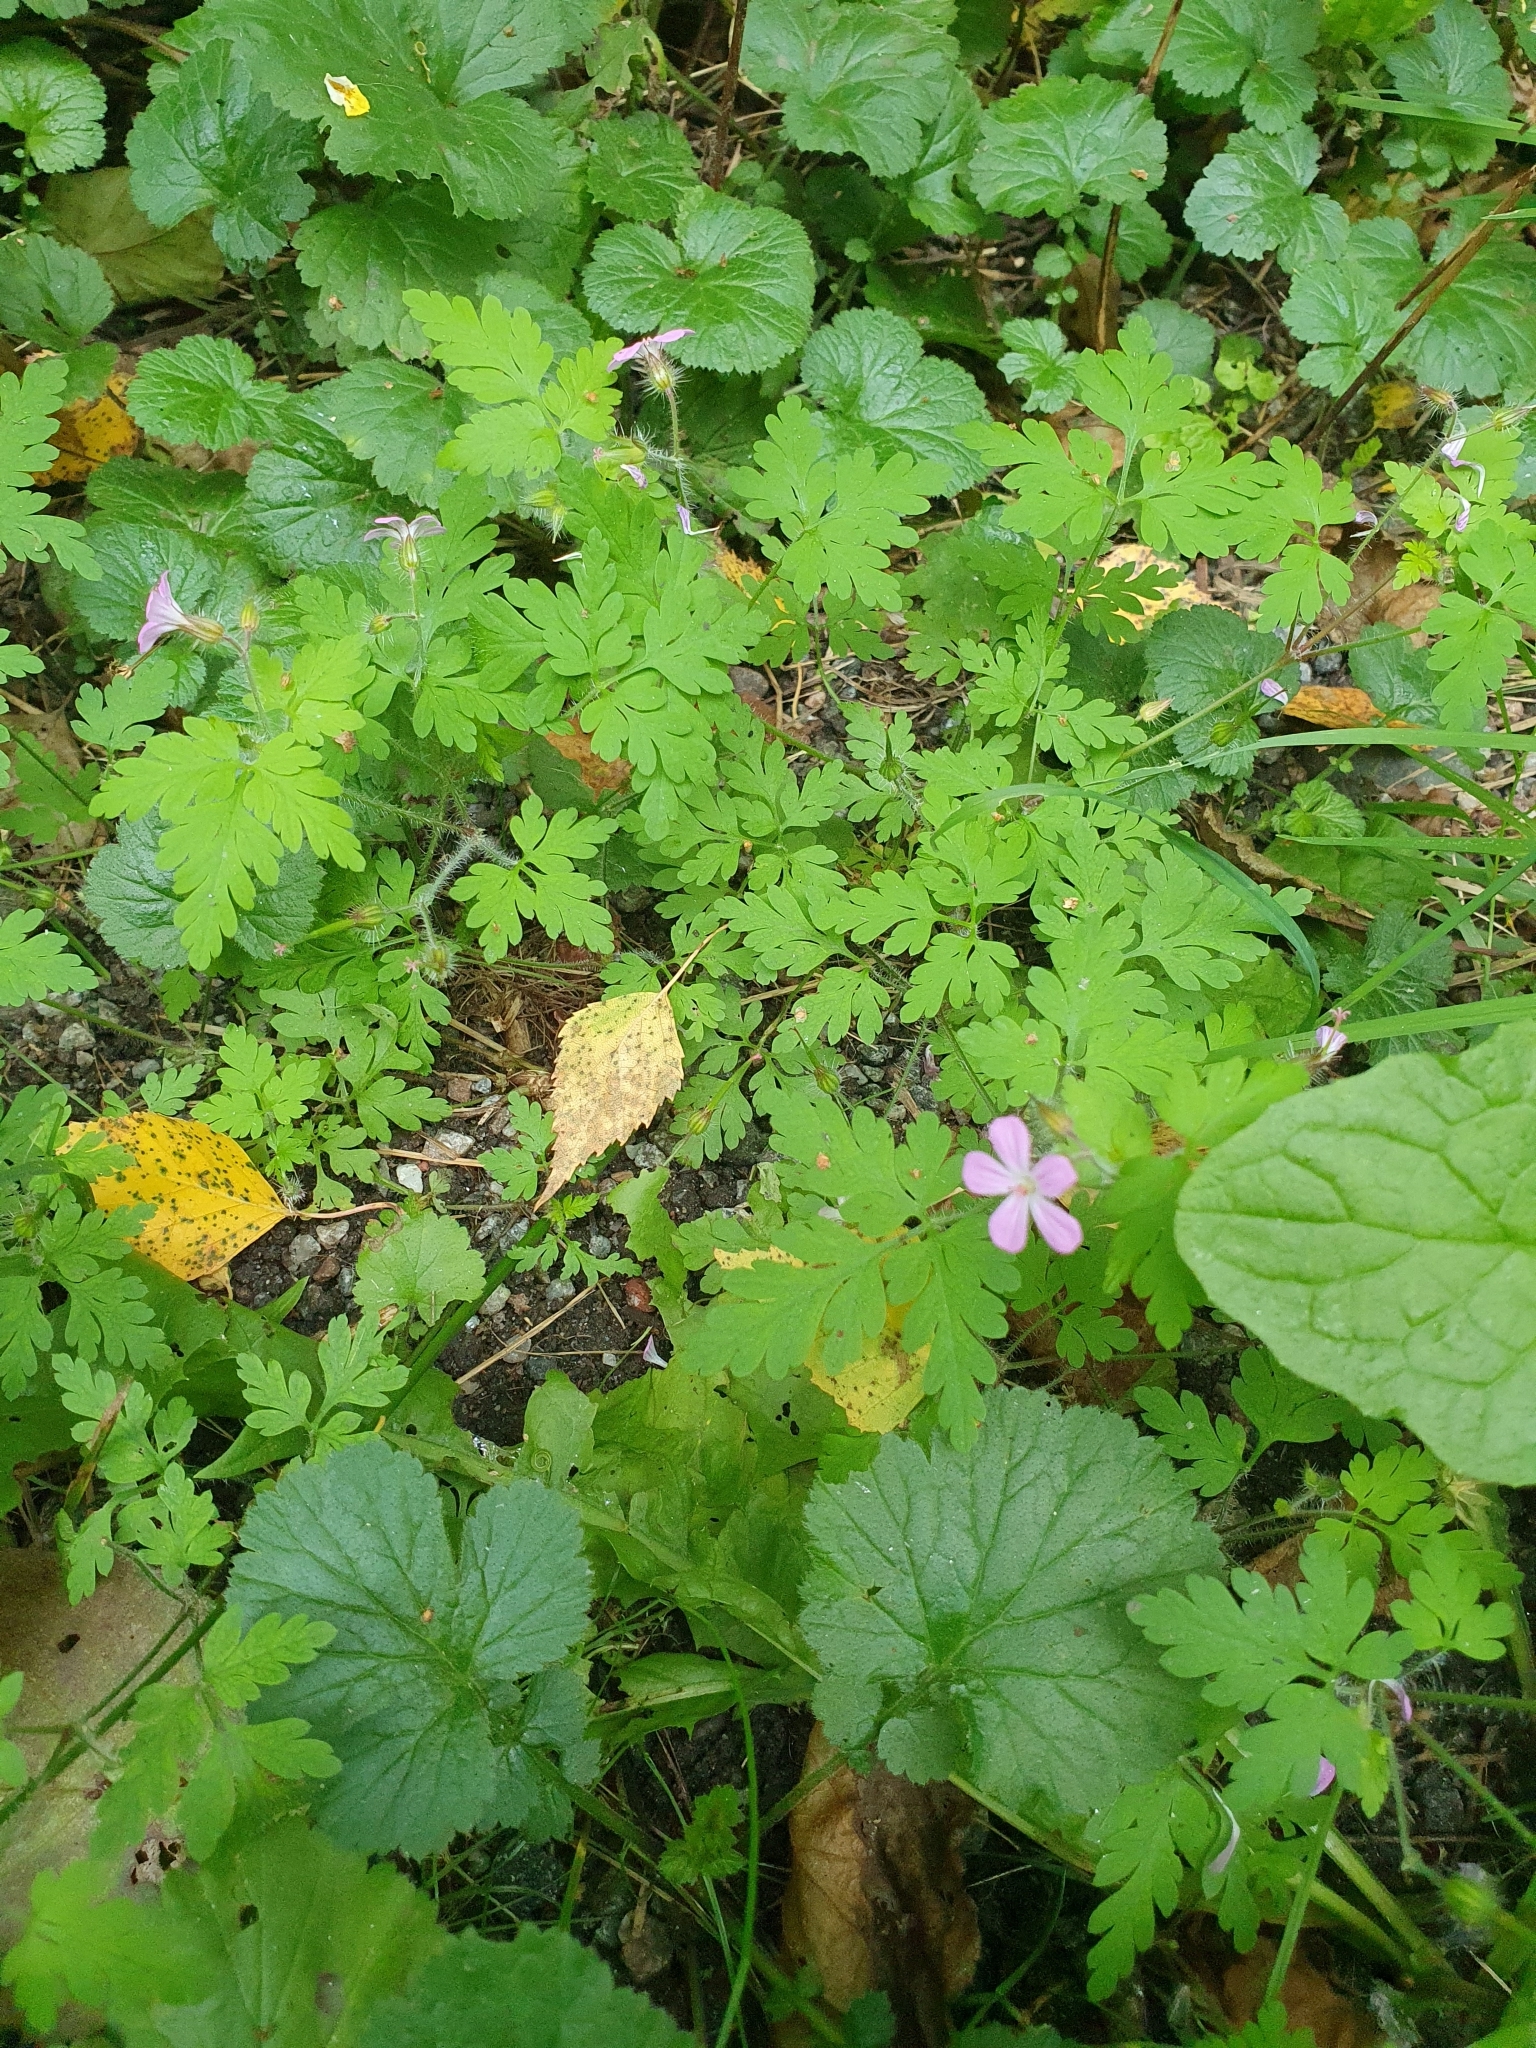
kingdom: Plantae
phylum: Tracheophyta
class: Magnoliopsida
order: Geraniales
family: Geraniaceae
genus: Geranium
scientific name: Geranium robertianum
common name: Herb-robert
